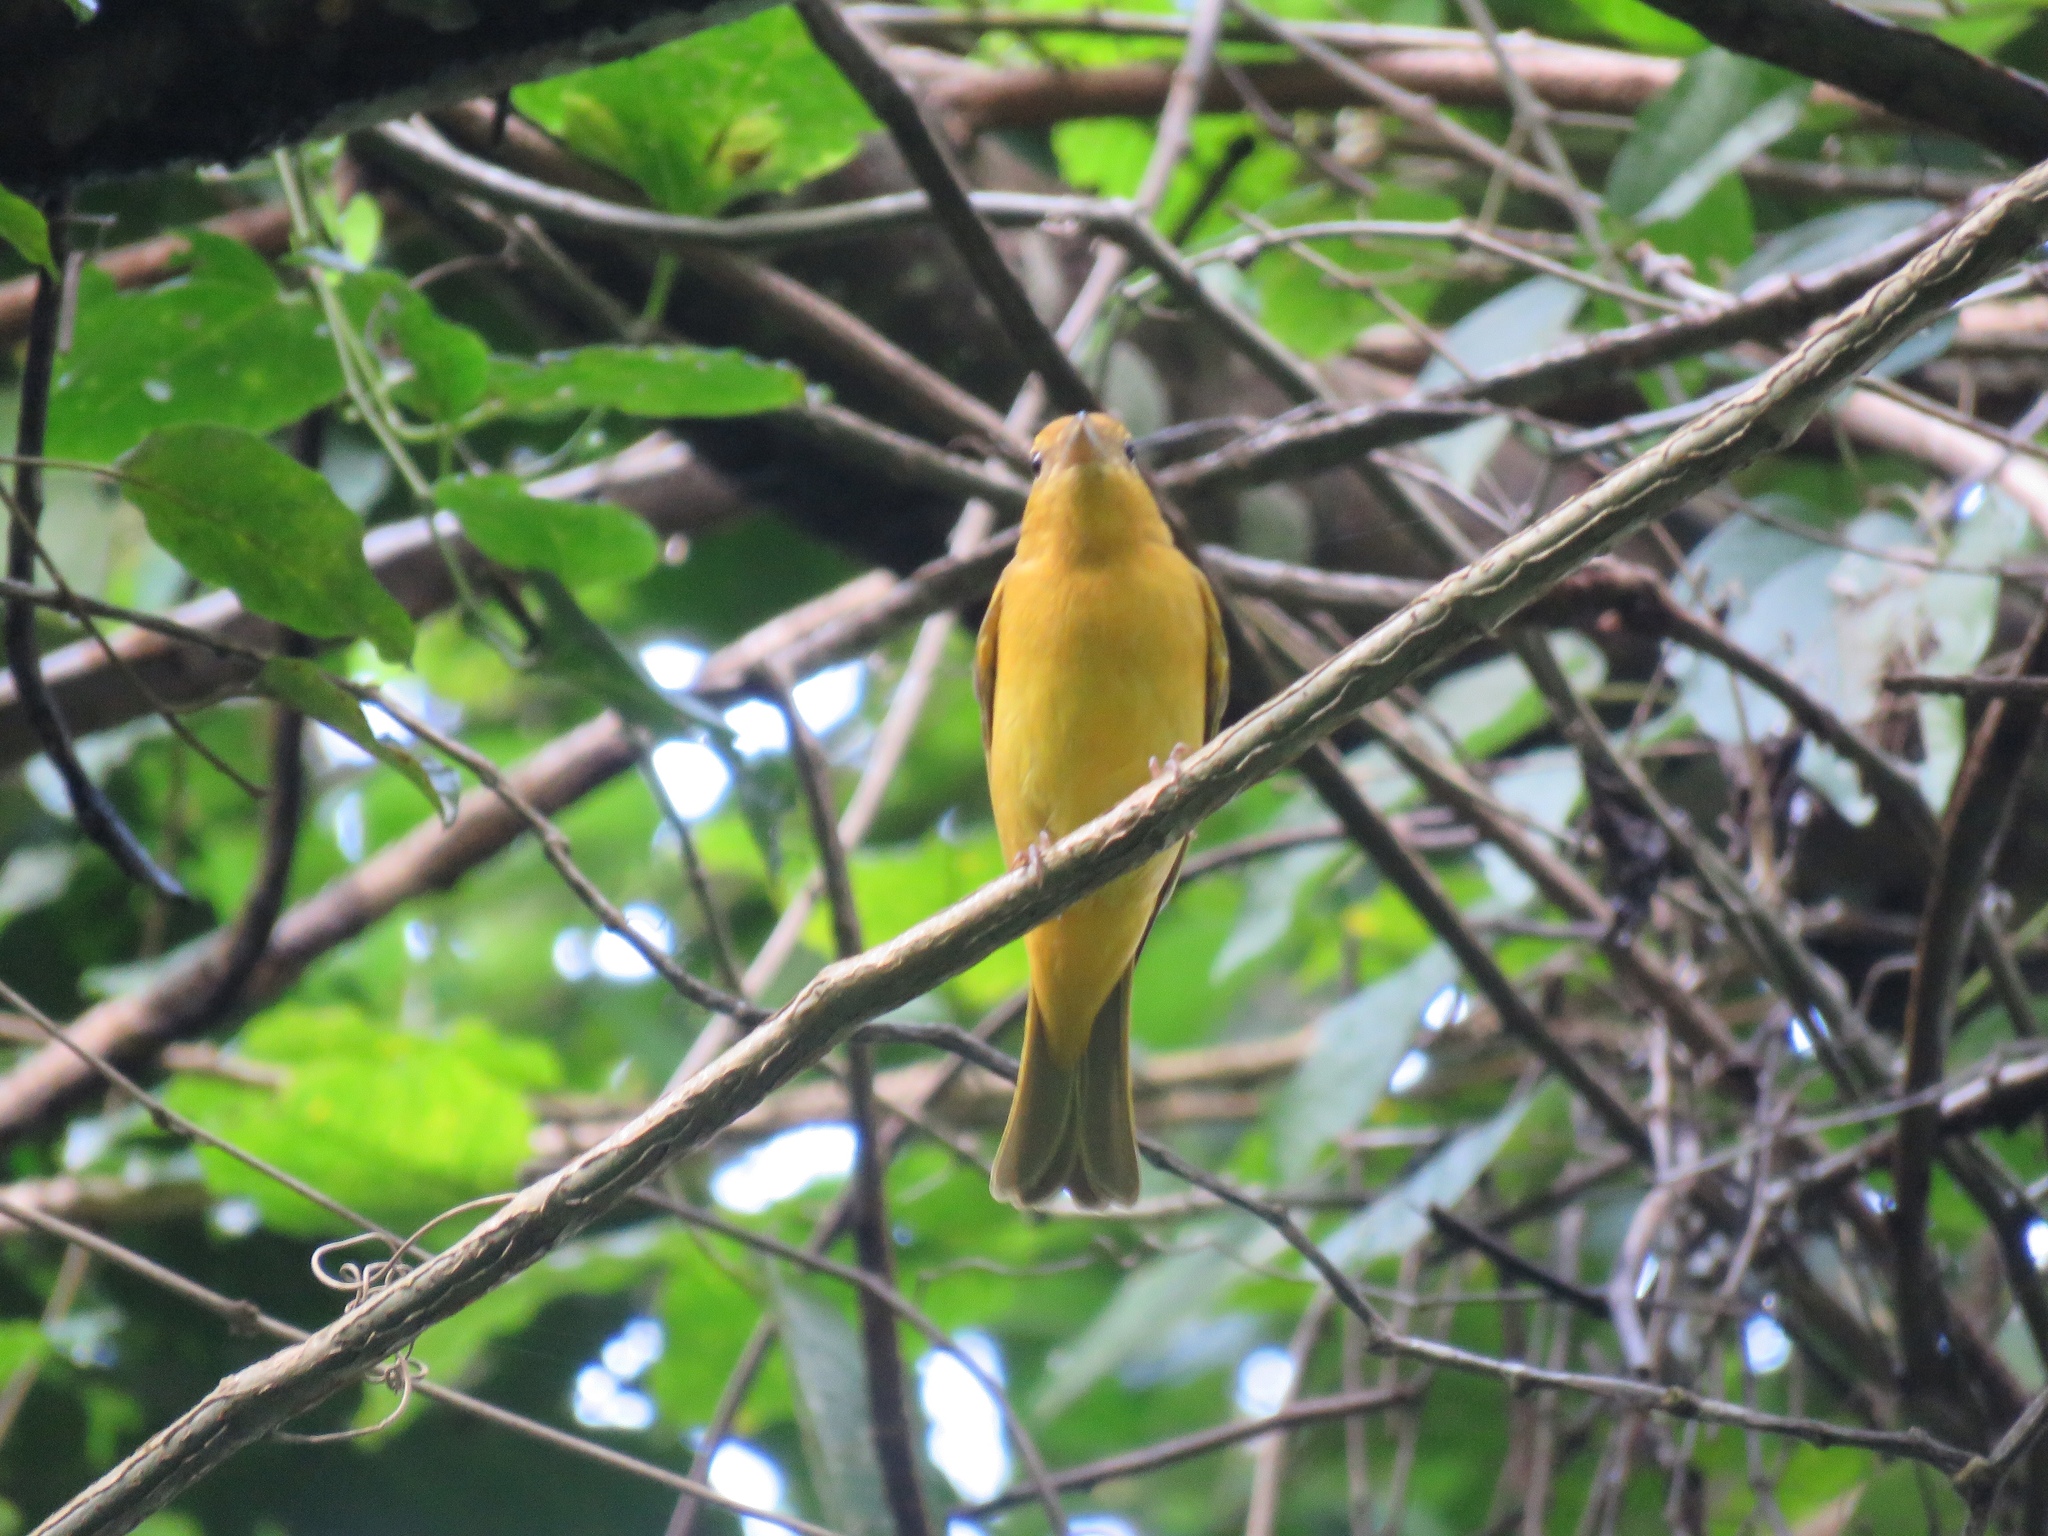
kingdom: Animalia
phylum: Chordata
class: Aves
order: Passeriformes
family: Cardinalidae
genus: Piranga
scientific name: Piranga rubra
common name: Summer tanager
